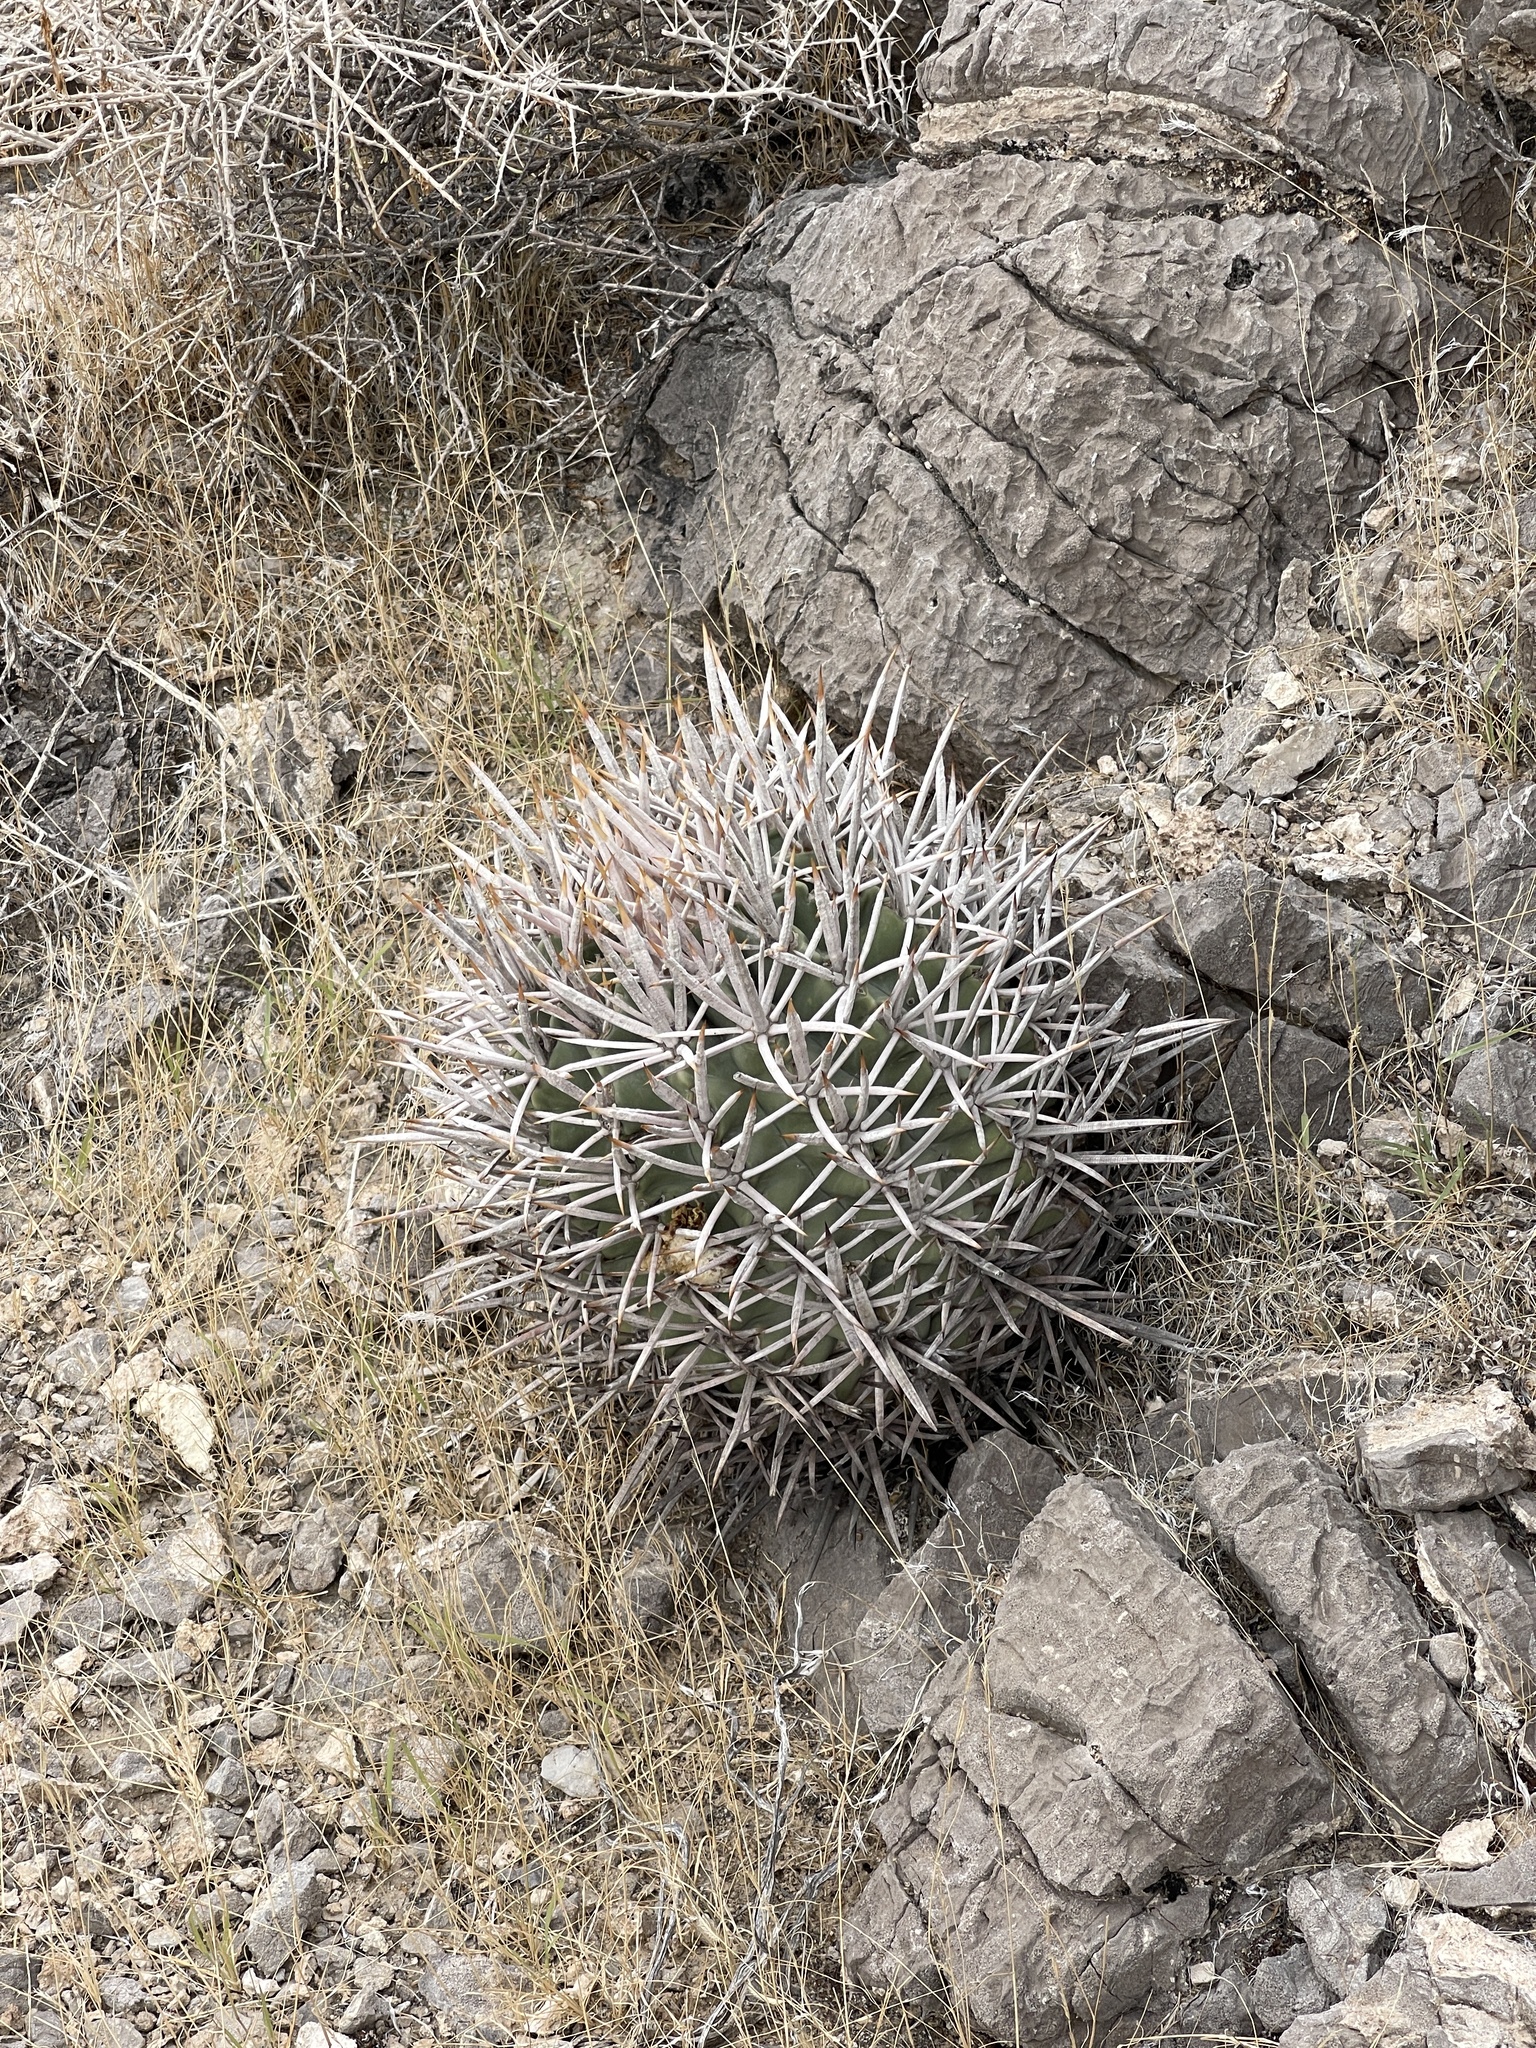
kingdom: Plantae
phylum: Tracheophyta
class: Magnoliopsida
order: Caryophyllales
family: Cactaceae
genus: Echinocactus
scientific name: Echinocactus polycephalus
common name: Cottontop cactus
